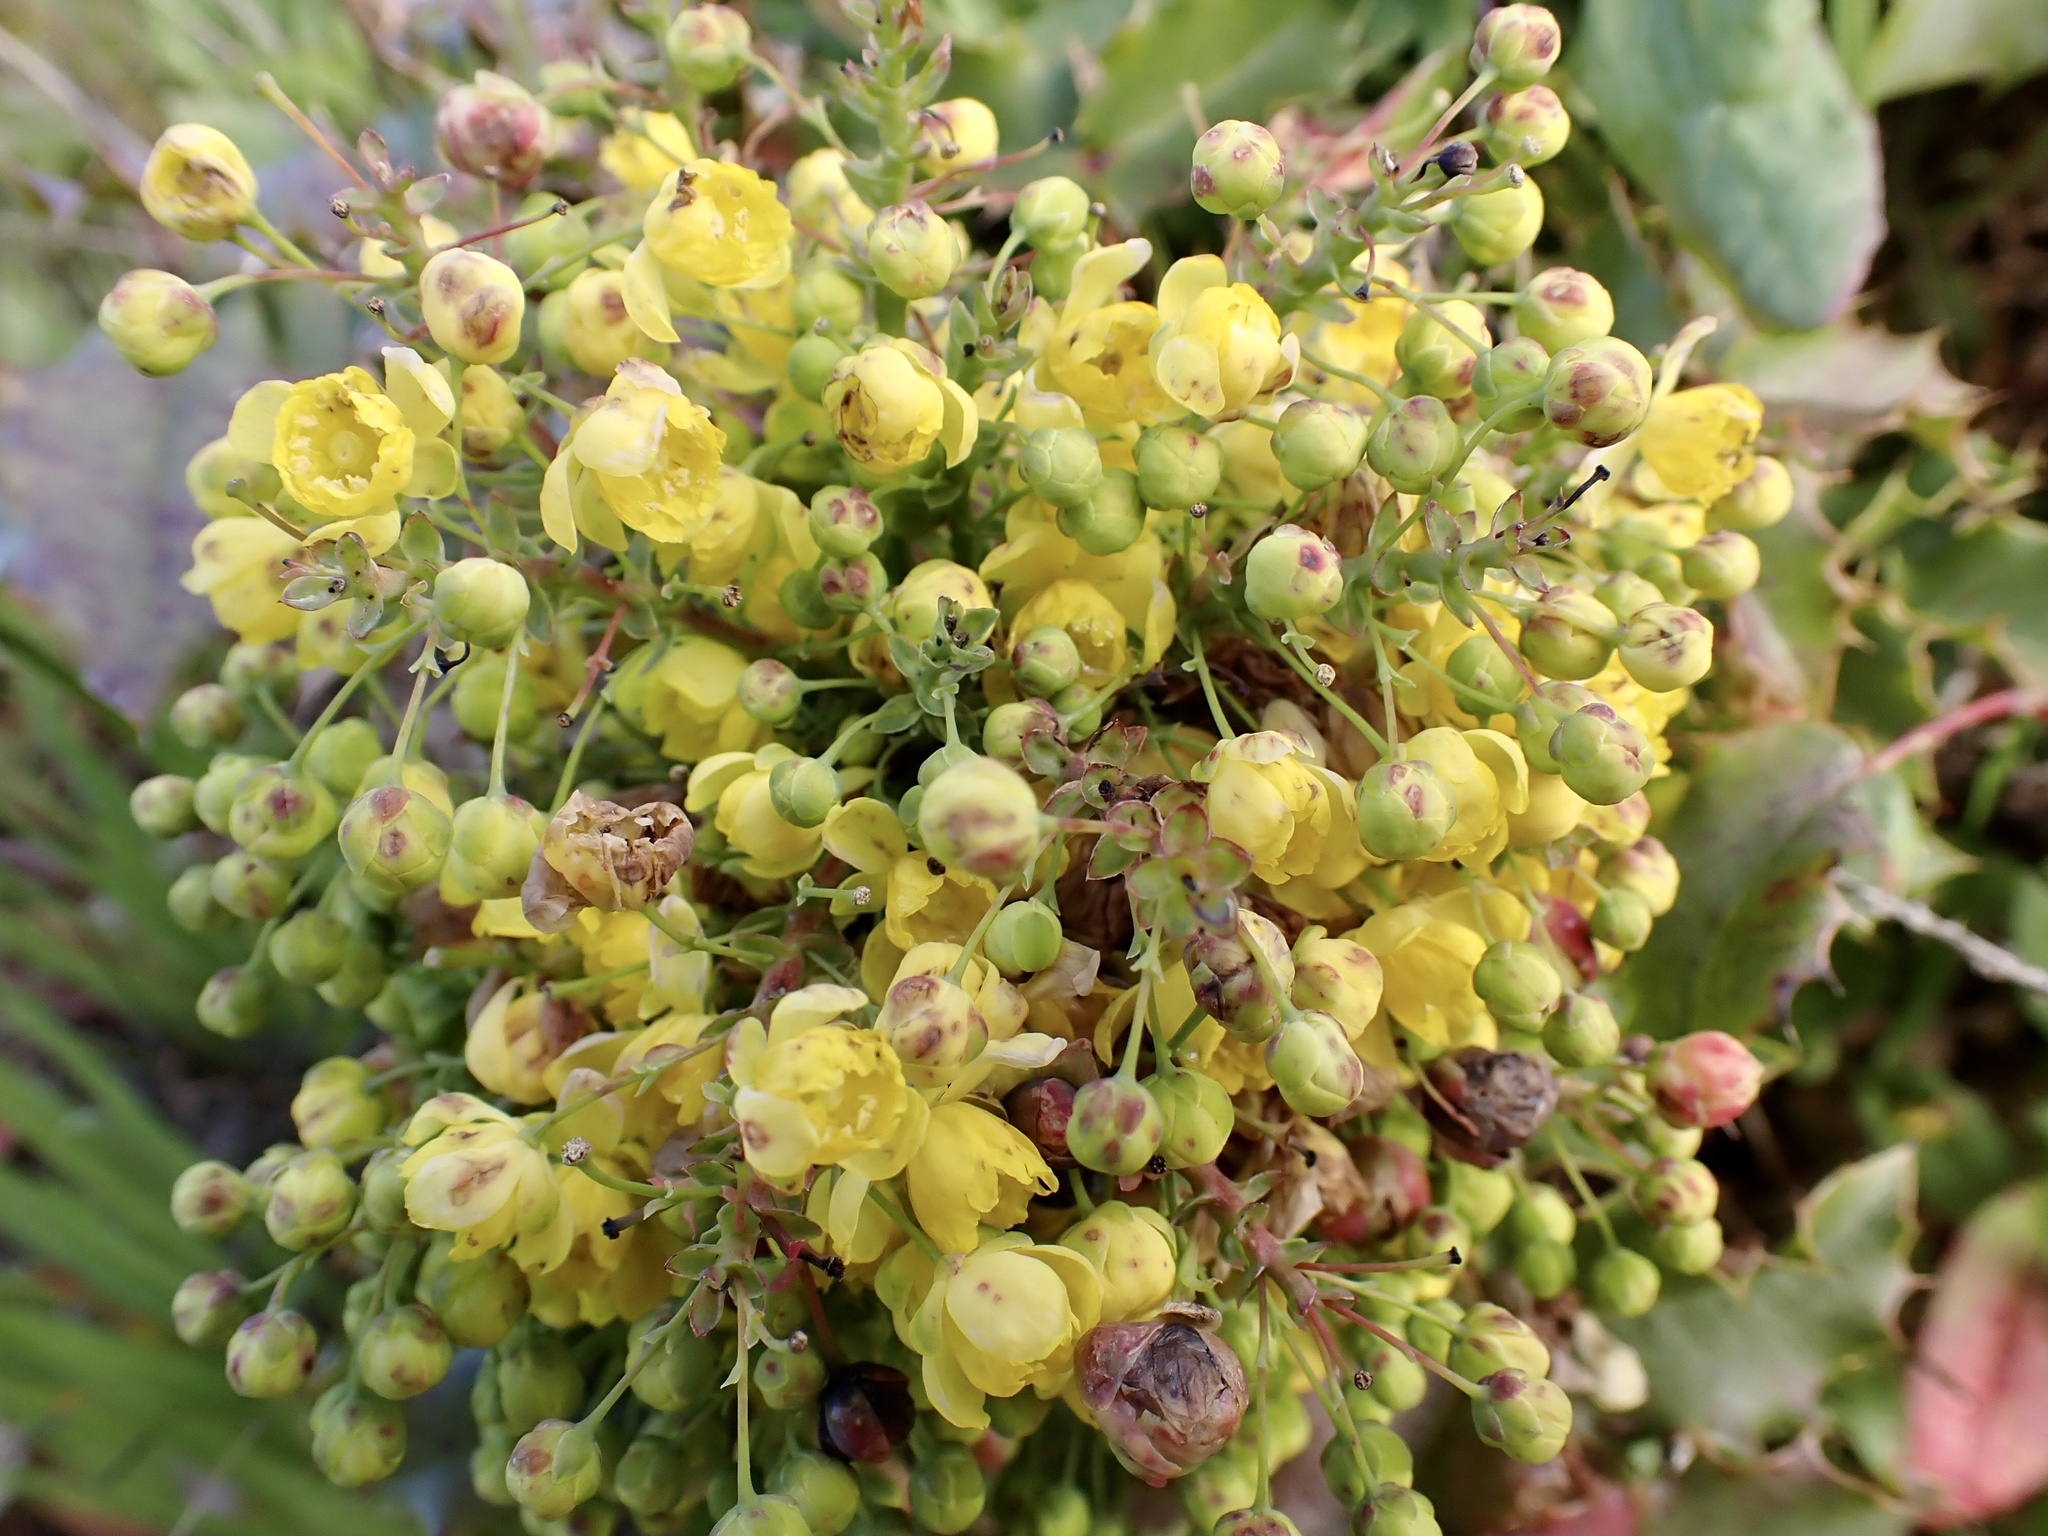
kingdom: Plantae
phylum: Tracheophyta
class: Magnoliopsida
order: Ranunculales
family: Berberidaceae
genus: Mahonia
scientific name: Mahonia
